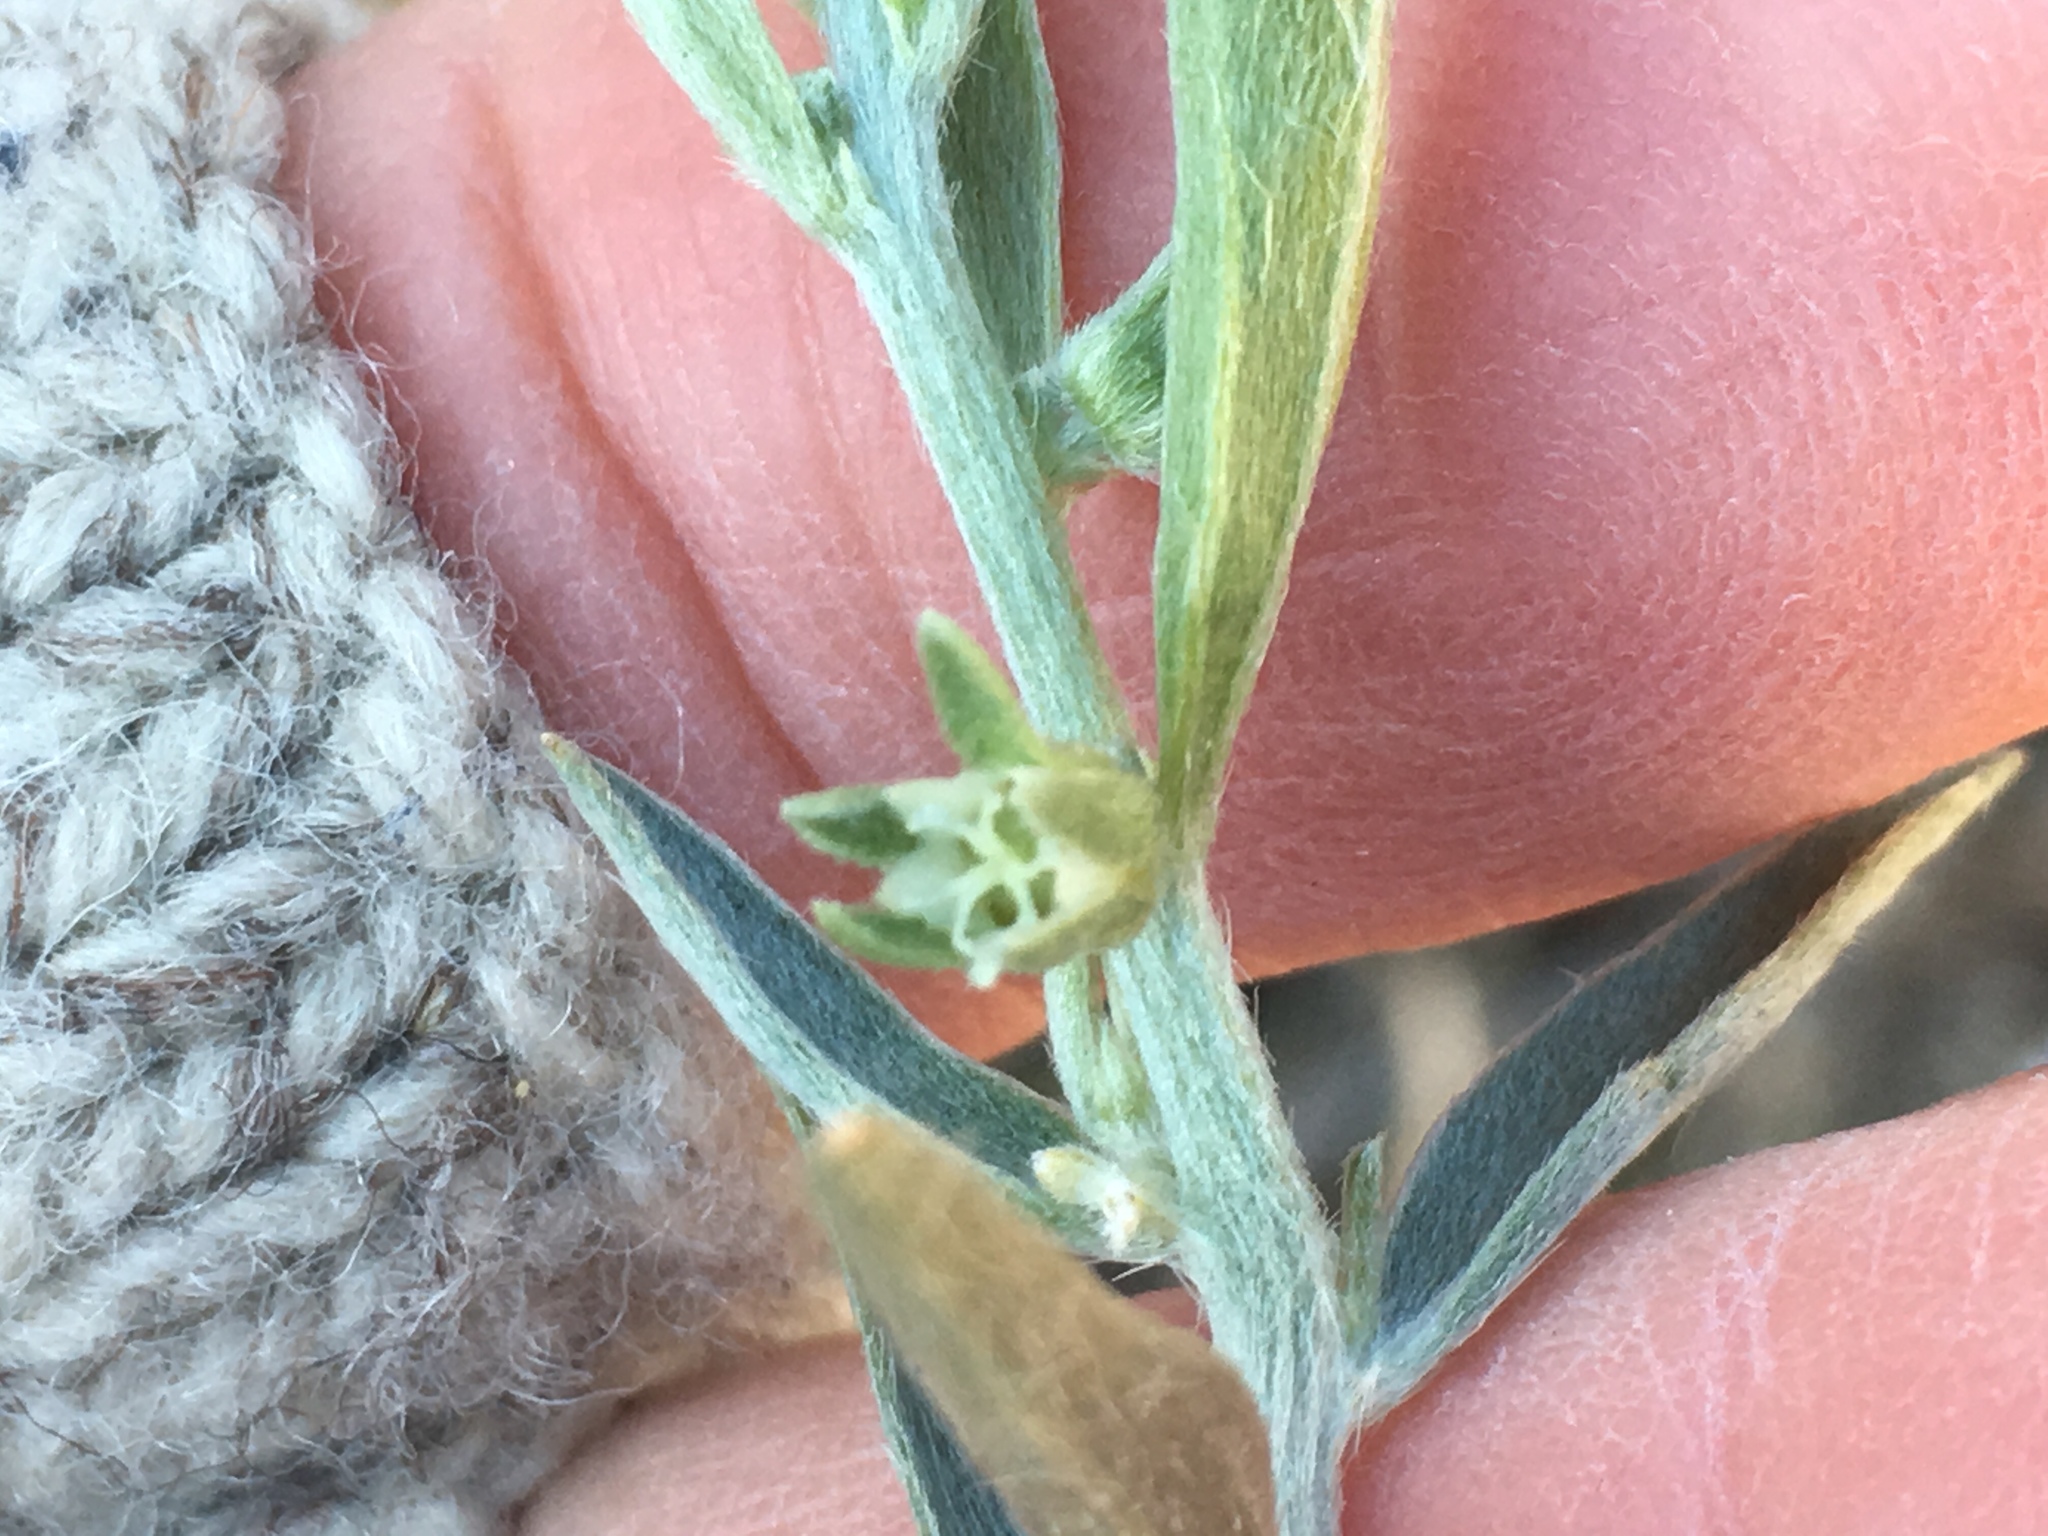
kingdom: Plantae
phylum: Tracheophyta
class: Magnoliopsida
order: Malpighiales
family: Euphorbiaceae
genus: Ditaxis
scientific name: Ditaxis lanceolata
